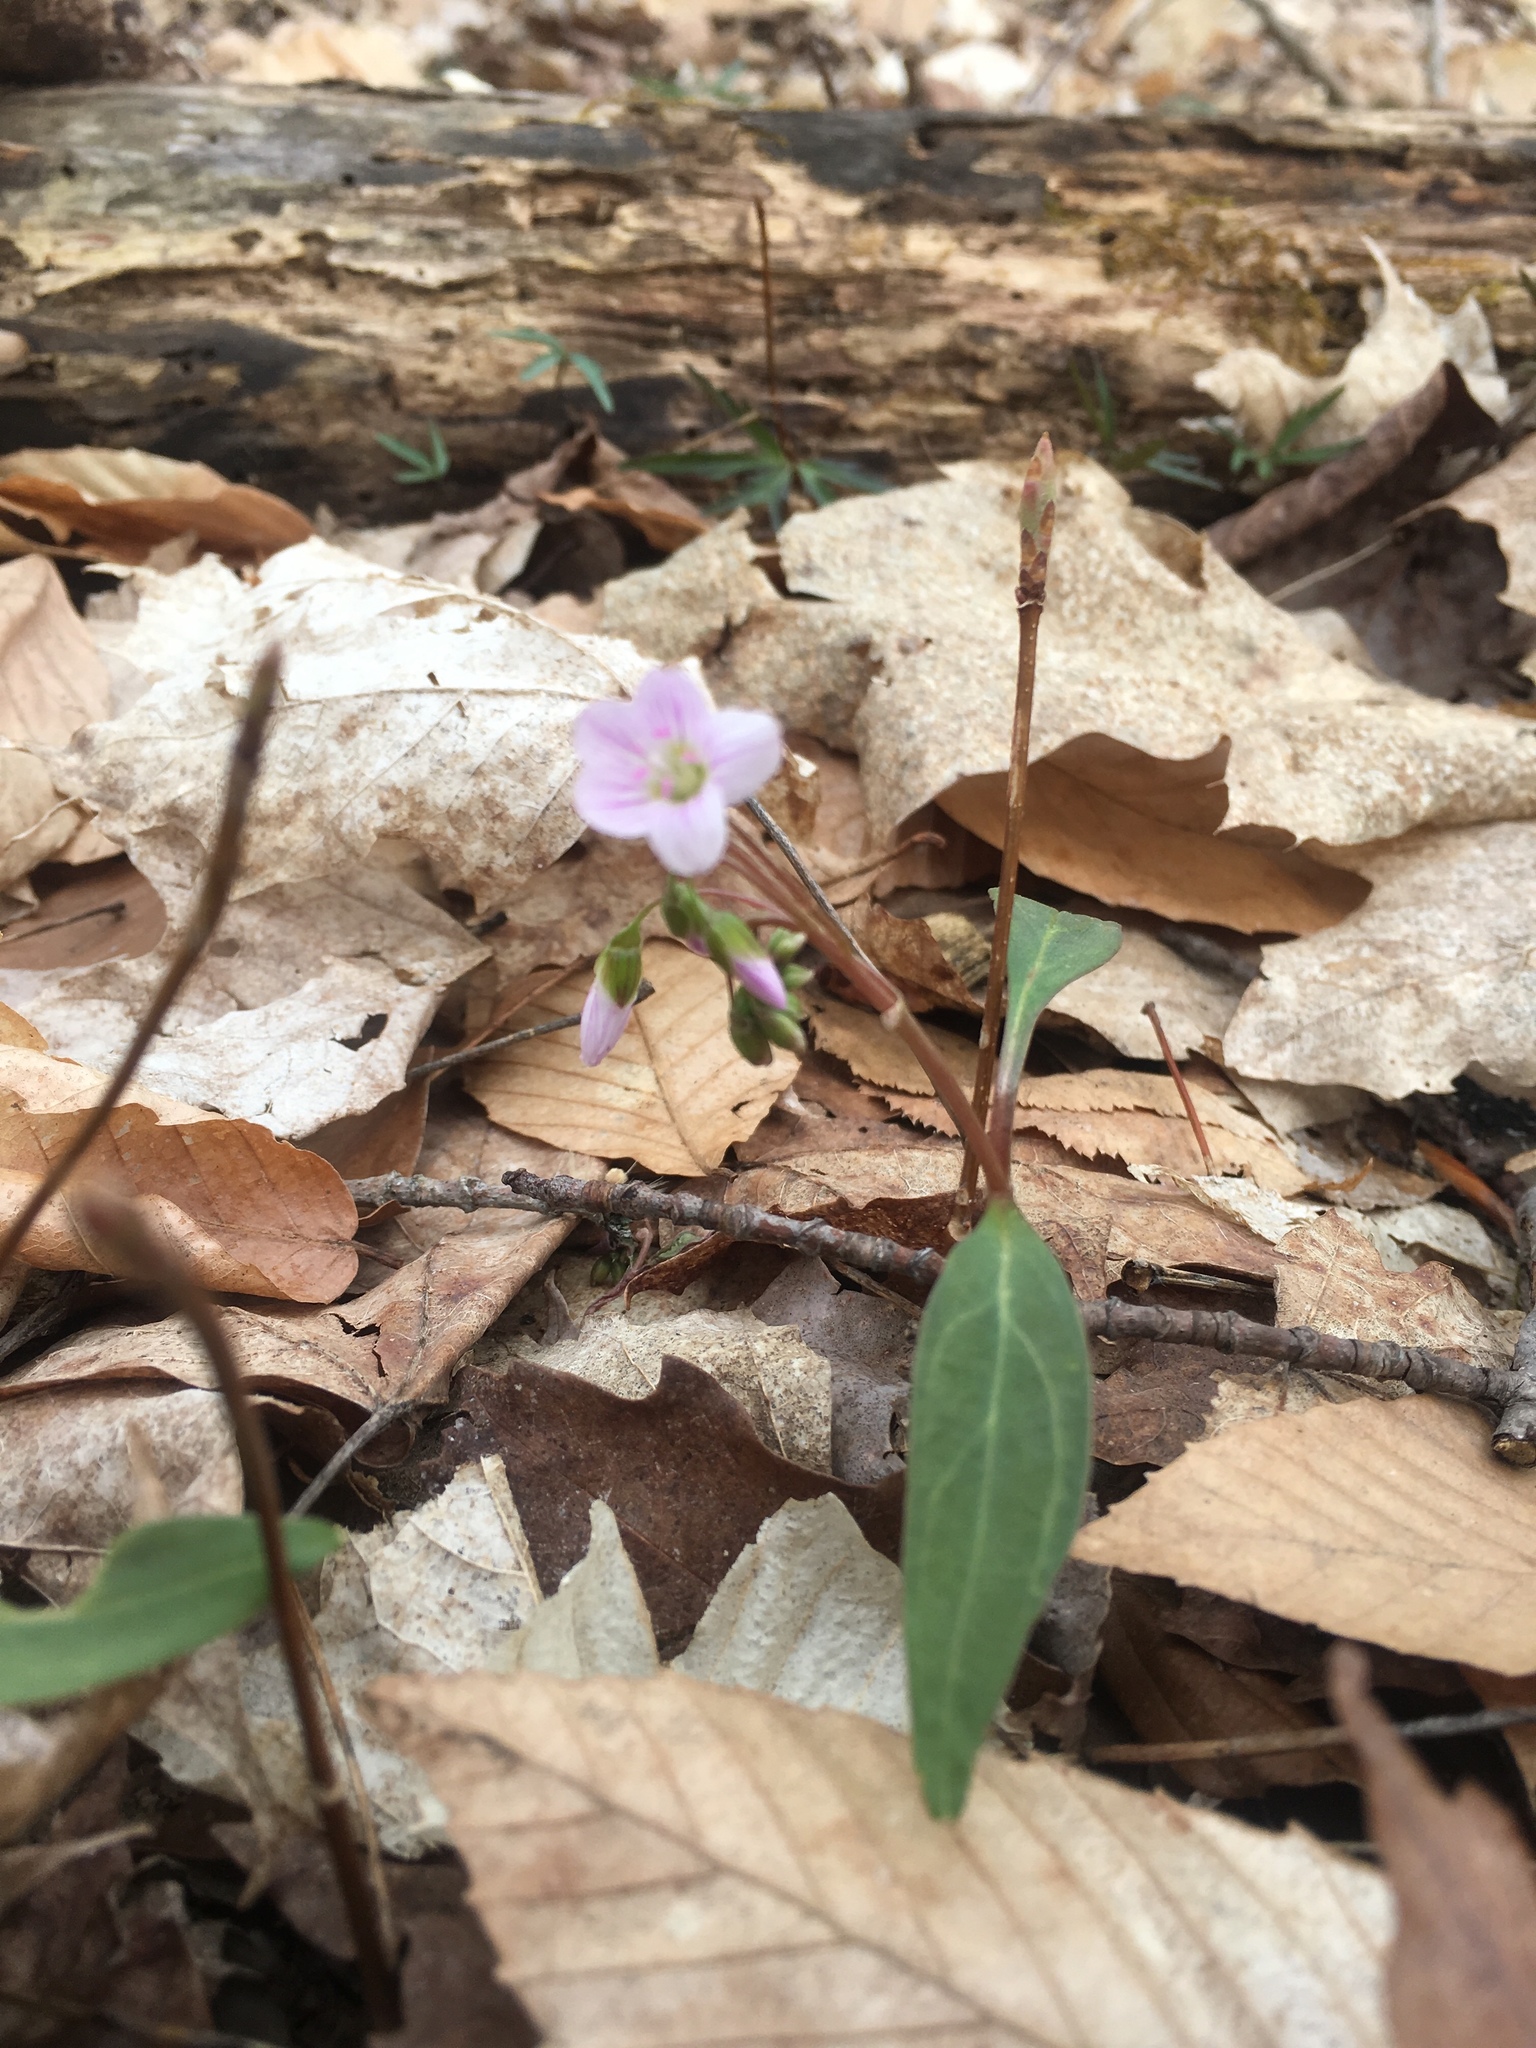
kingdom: Plantae
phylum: Tracheophyta
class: Magnoliopsida
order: Caryophyllales
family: Montiaceae
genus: Claytonia
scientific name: Claytonia caroliniana
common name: Carolina spring beauty
